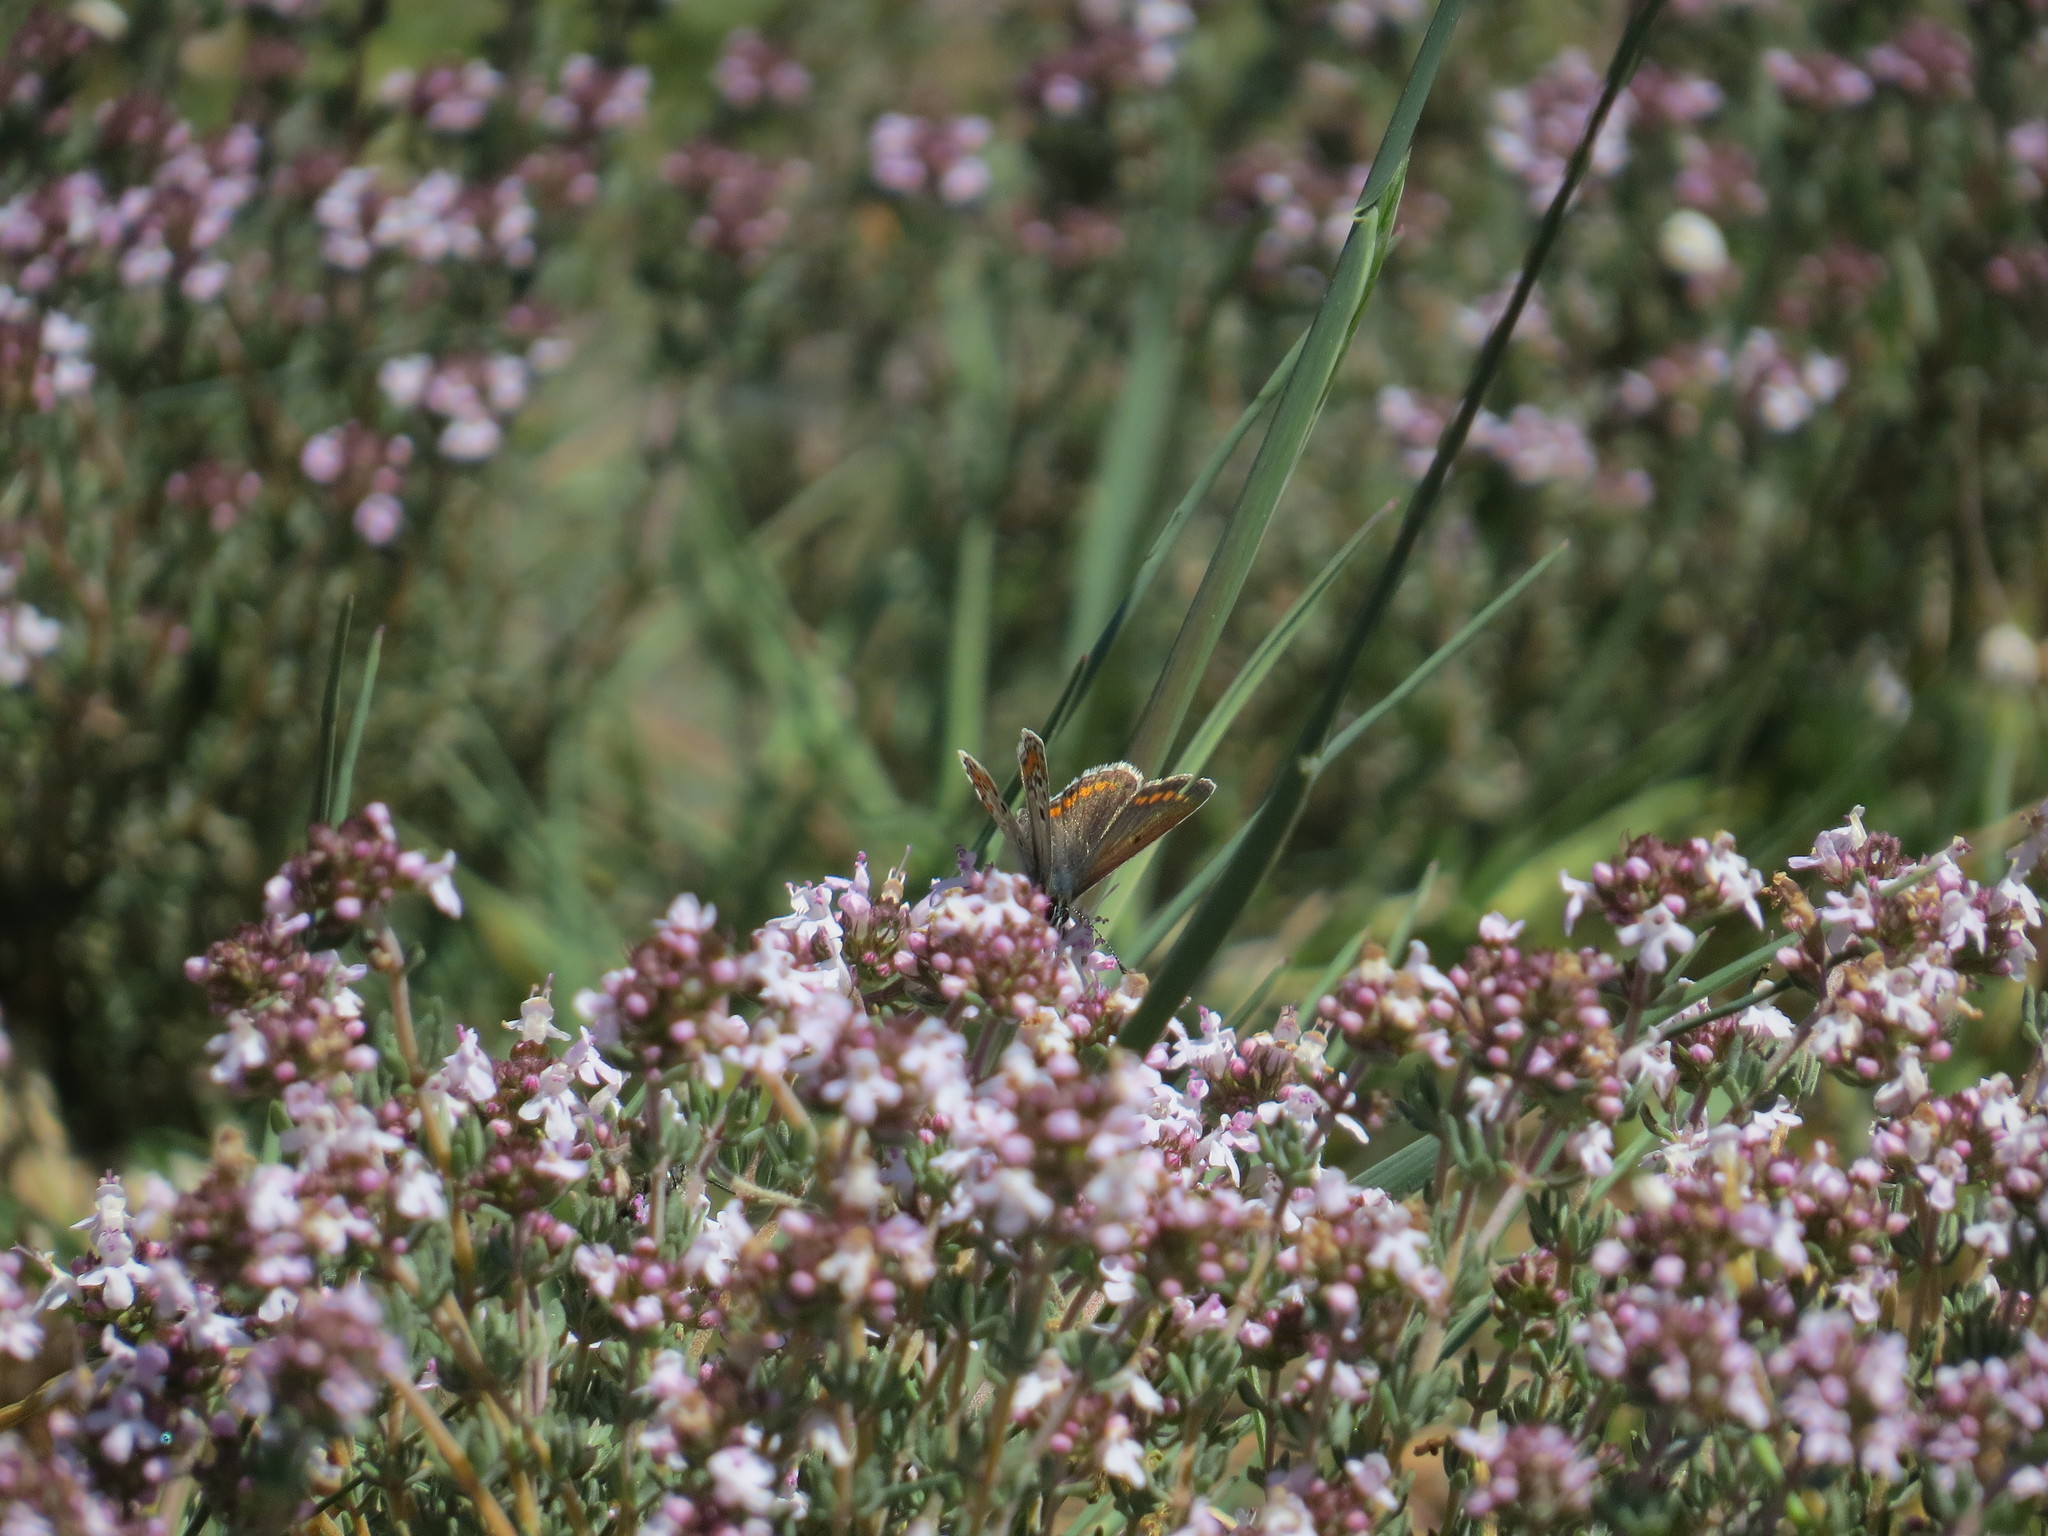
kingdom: Animalia
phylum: Arthropoda
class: Insecta
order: Lepidoptera
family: Lycaenidae
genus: Aricia
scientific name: Aricia agestis
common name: Brown argus
